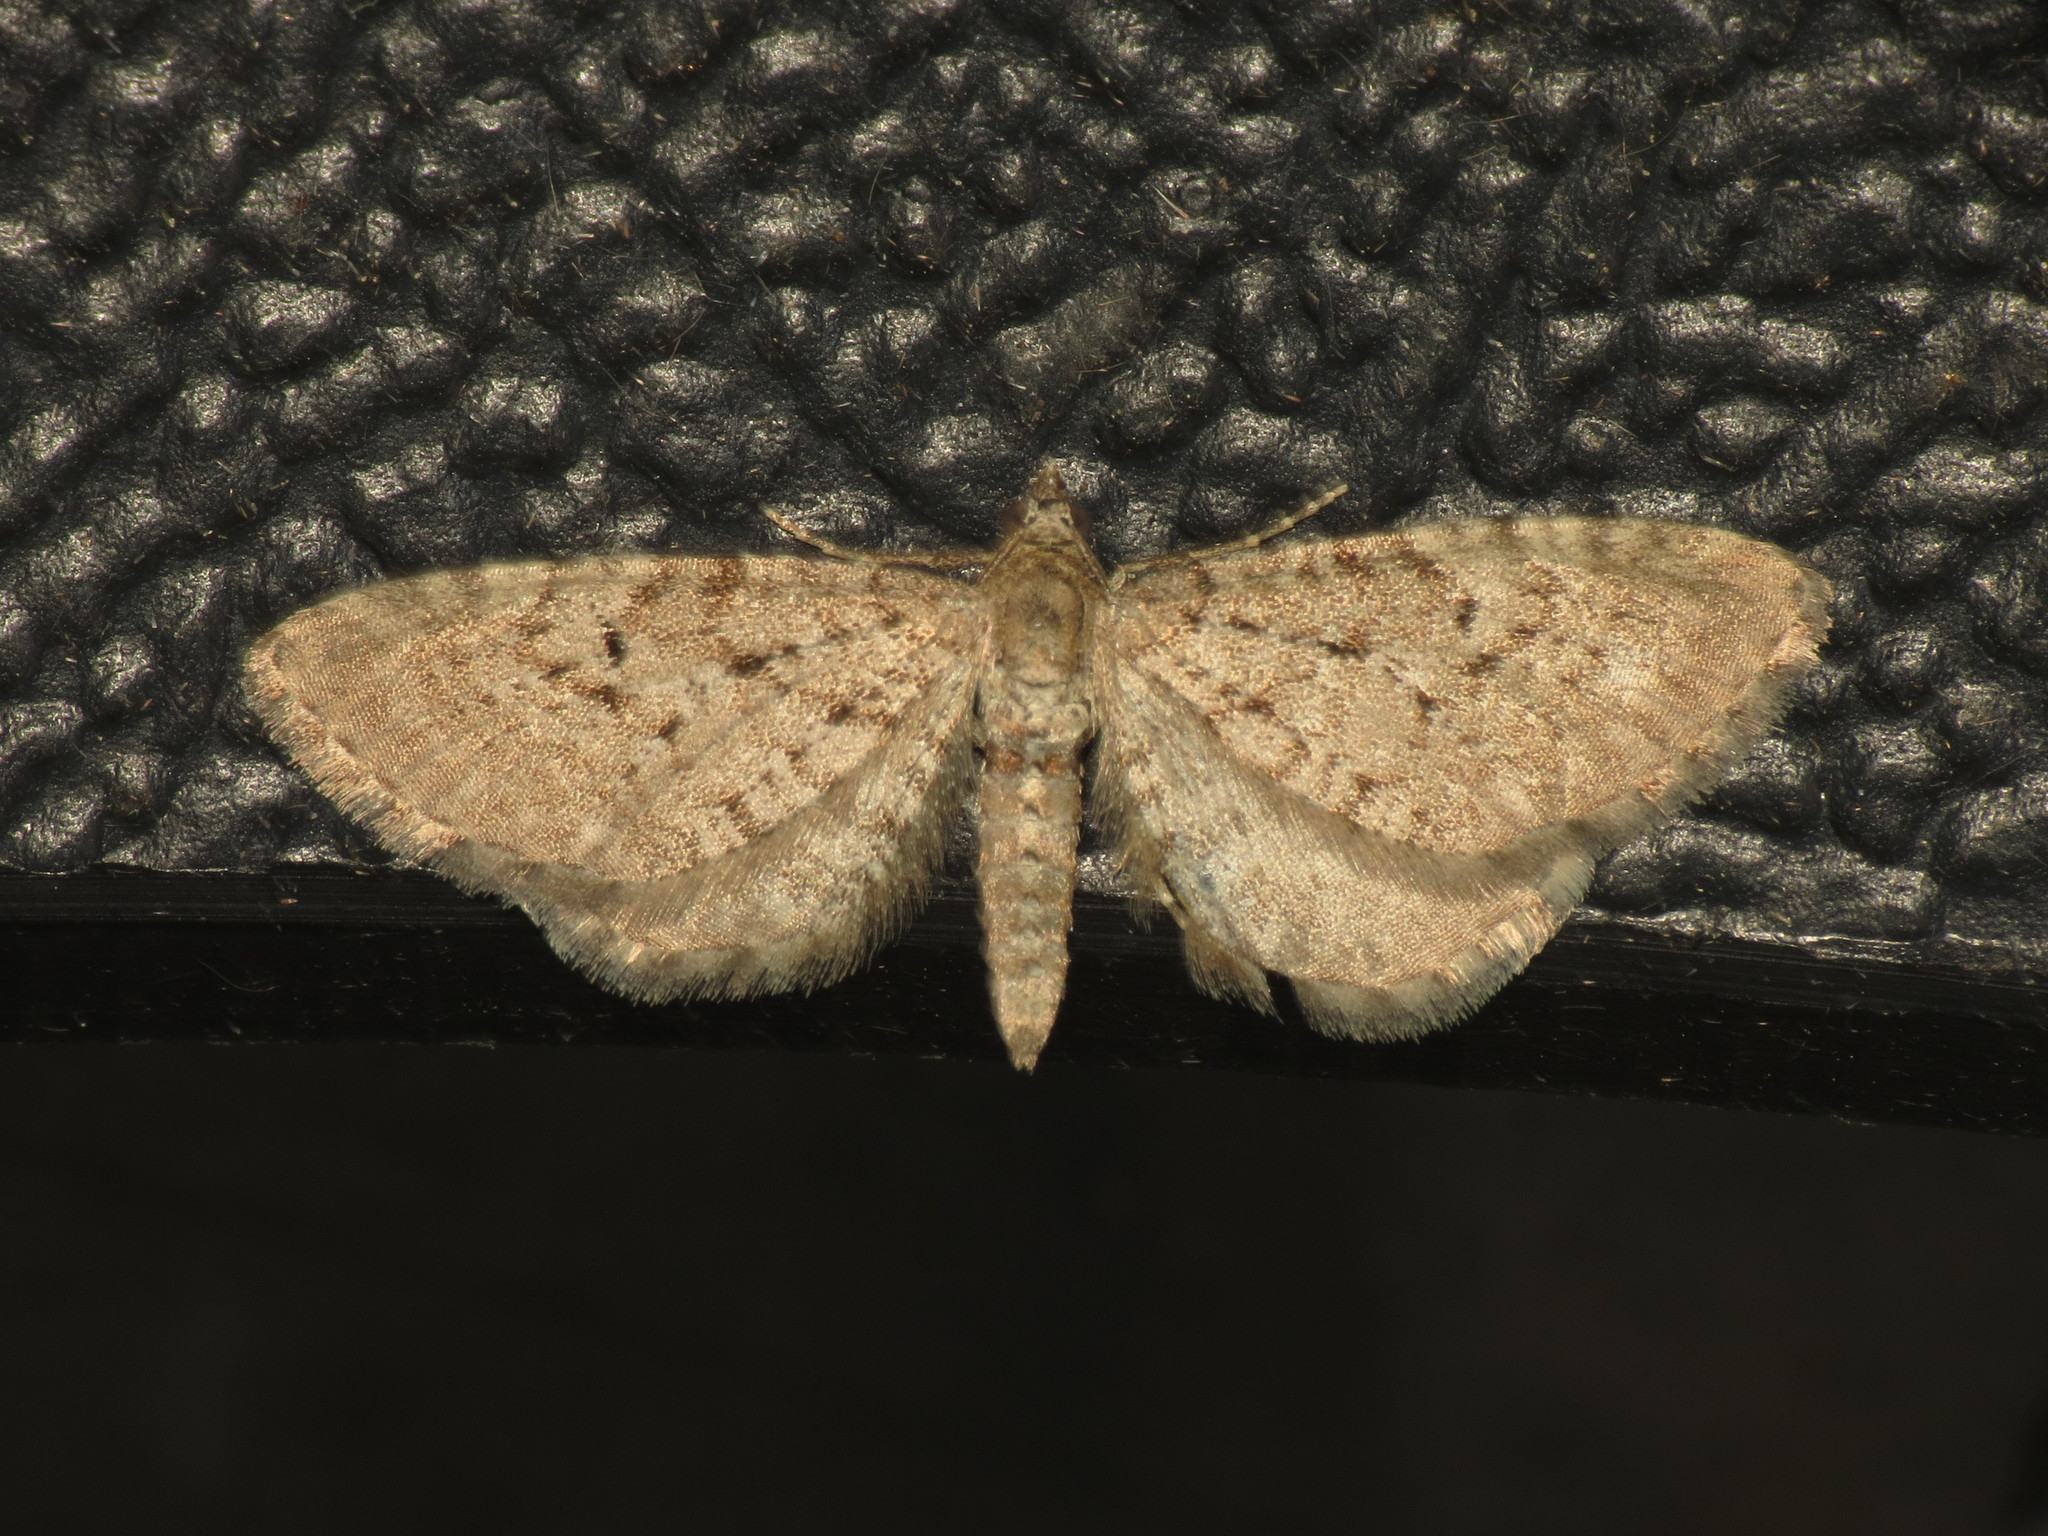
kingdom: Animalia
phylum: Arthropoda
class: Insecta
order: Lepidoptera
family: Geometridae
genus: Eupithecia
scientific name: Eupithecia intricata
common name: Freyers pug
